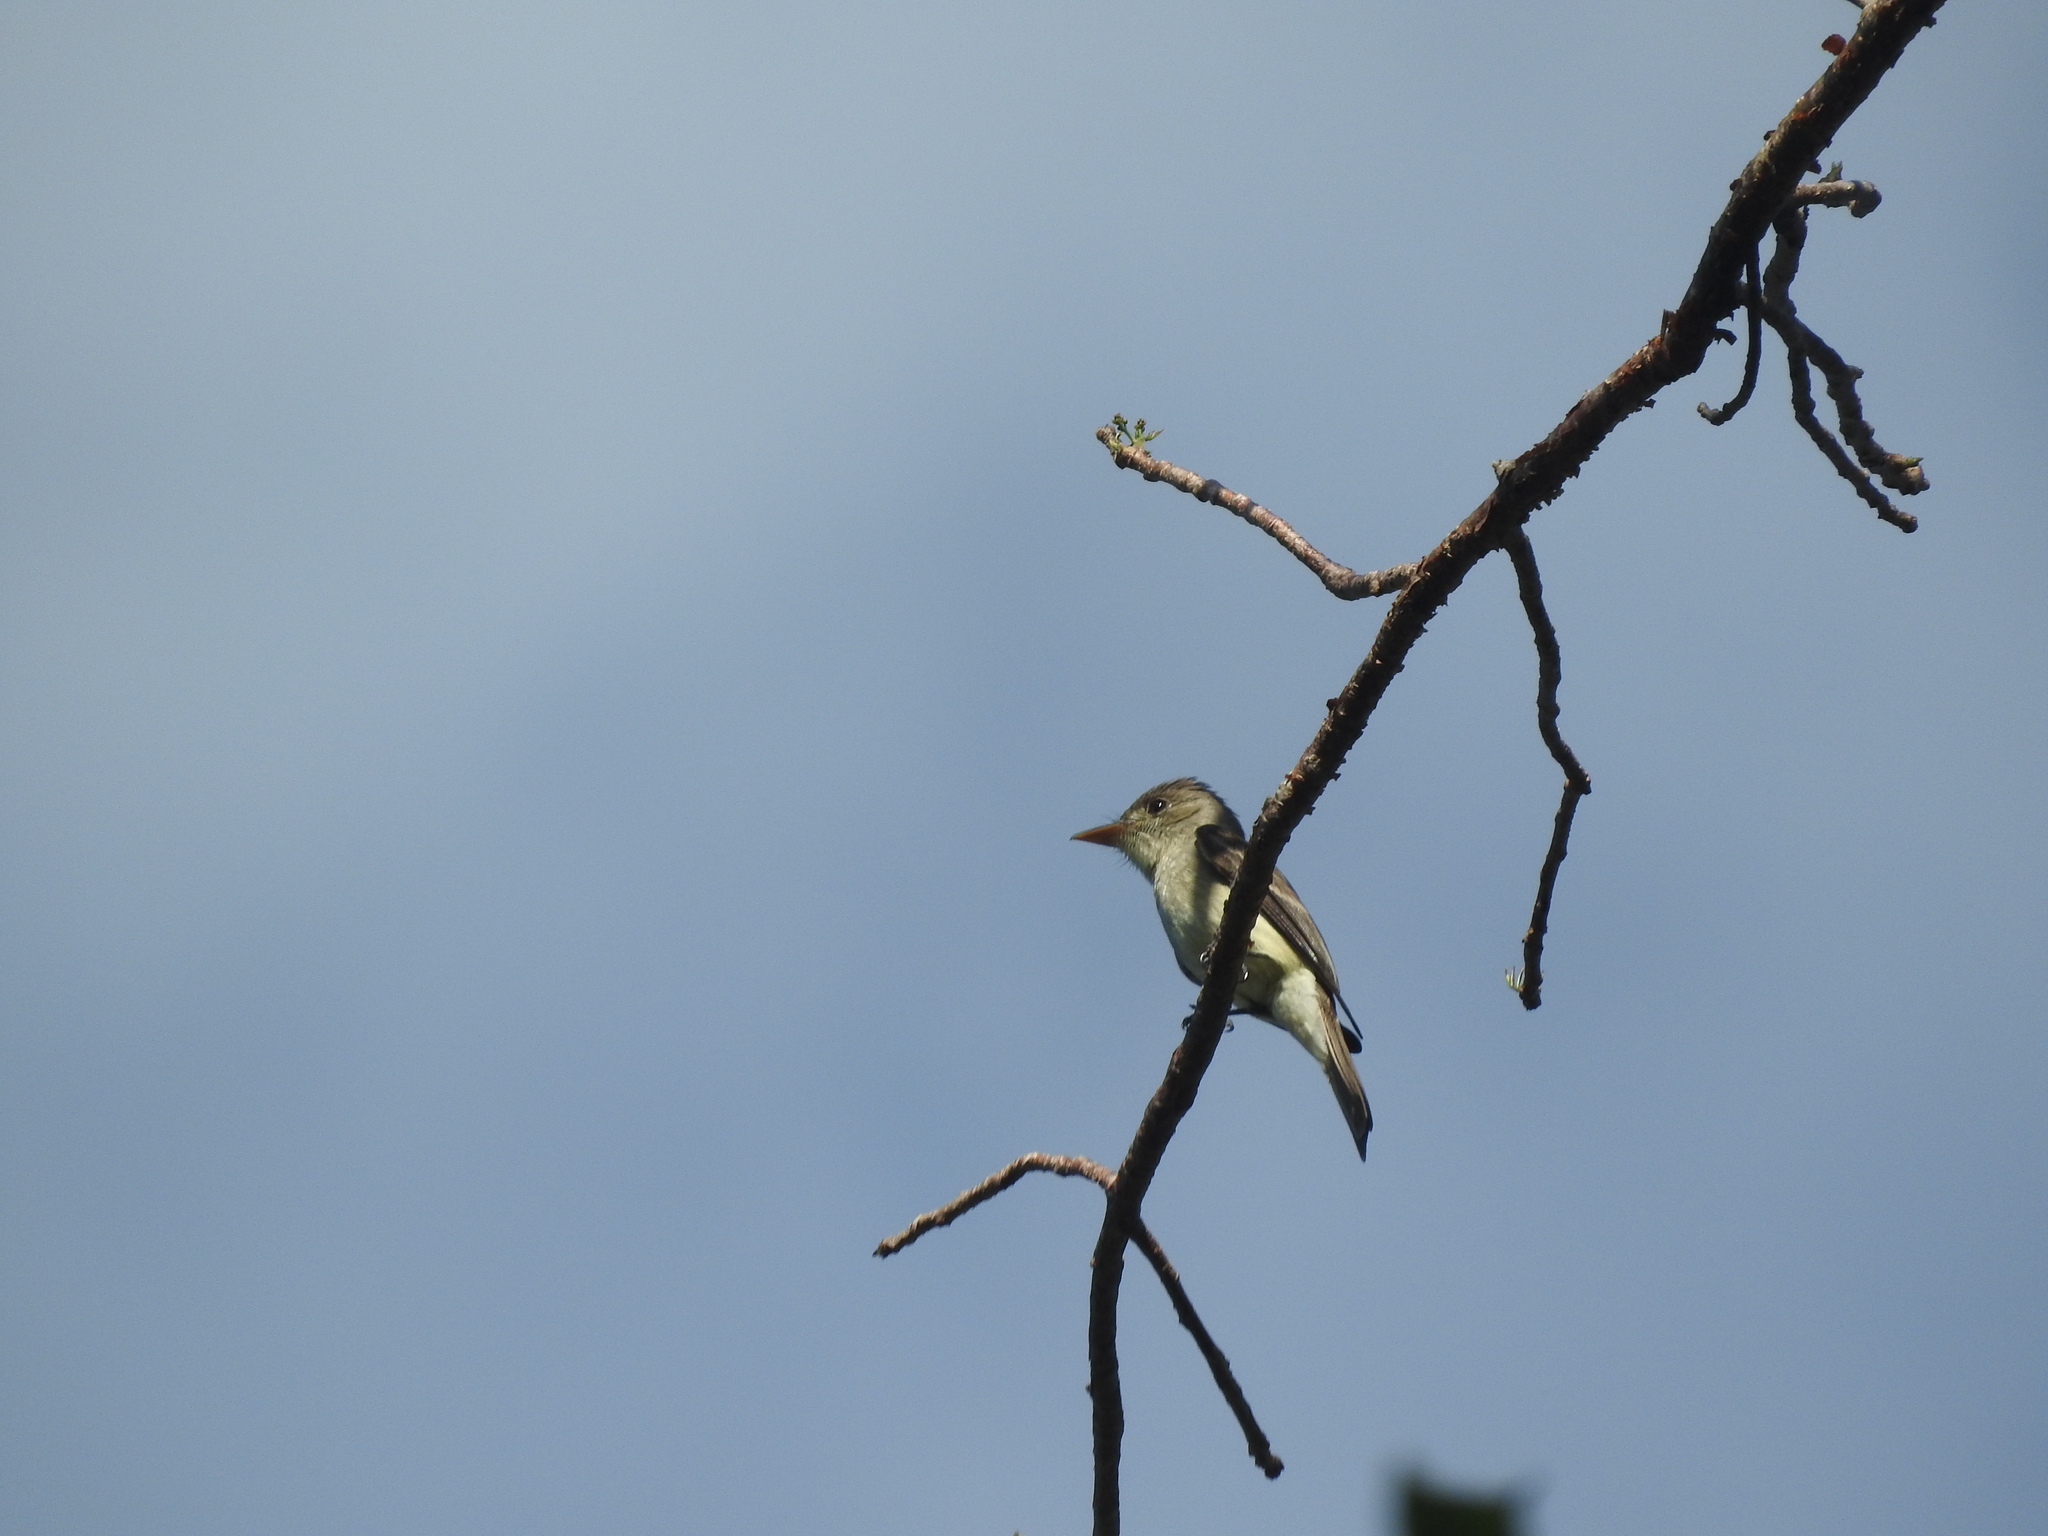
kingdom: Animalia
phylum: Chordata
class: Aves
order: Passeriformes
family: Tyrannidae
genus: Contopus
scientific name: Contopus cinereus
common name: Tropical pewee
